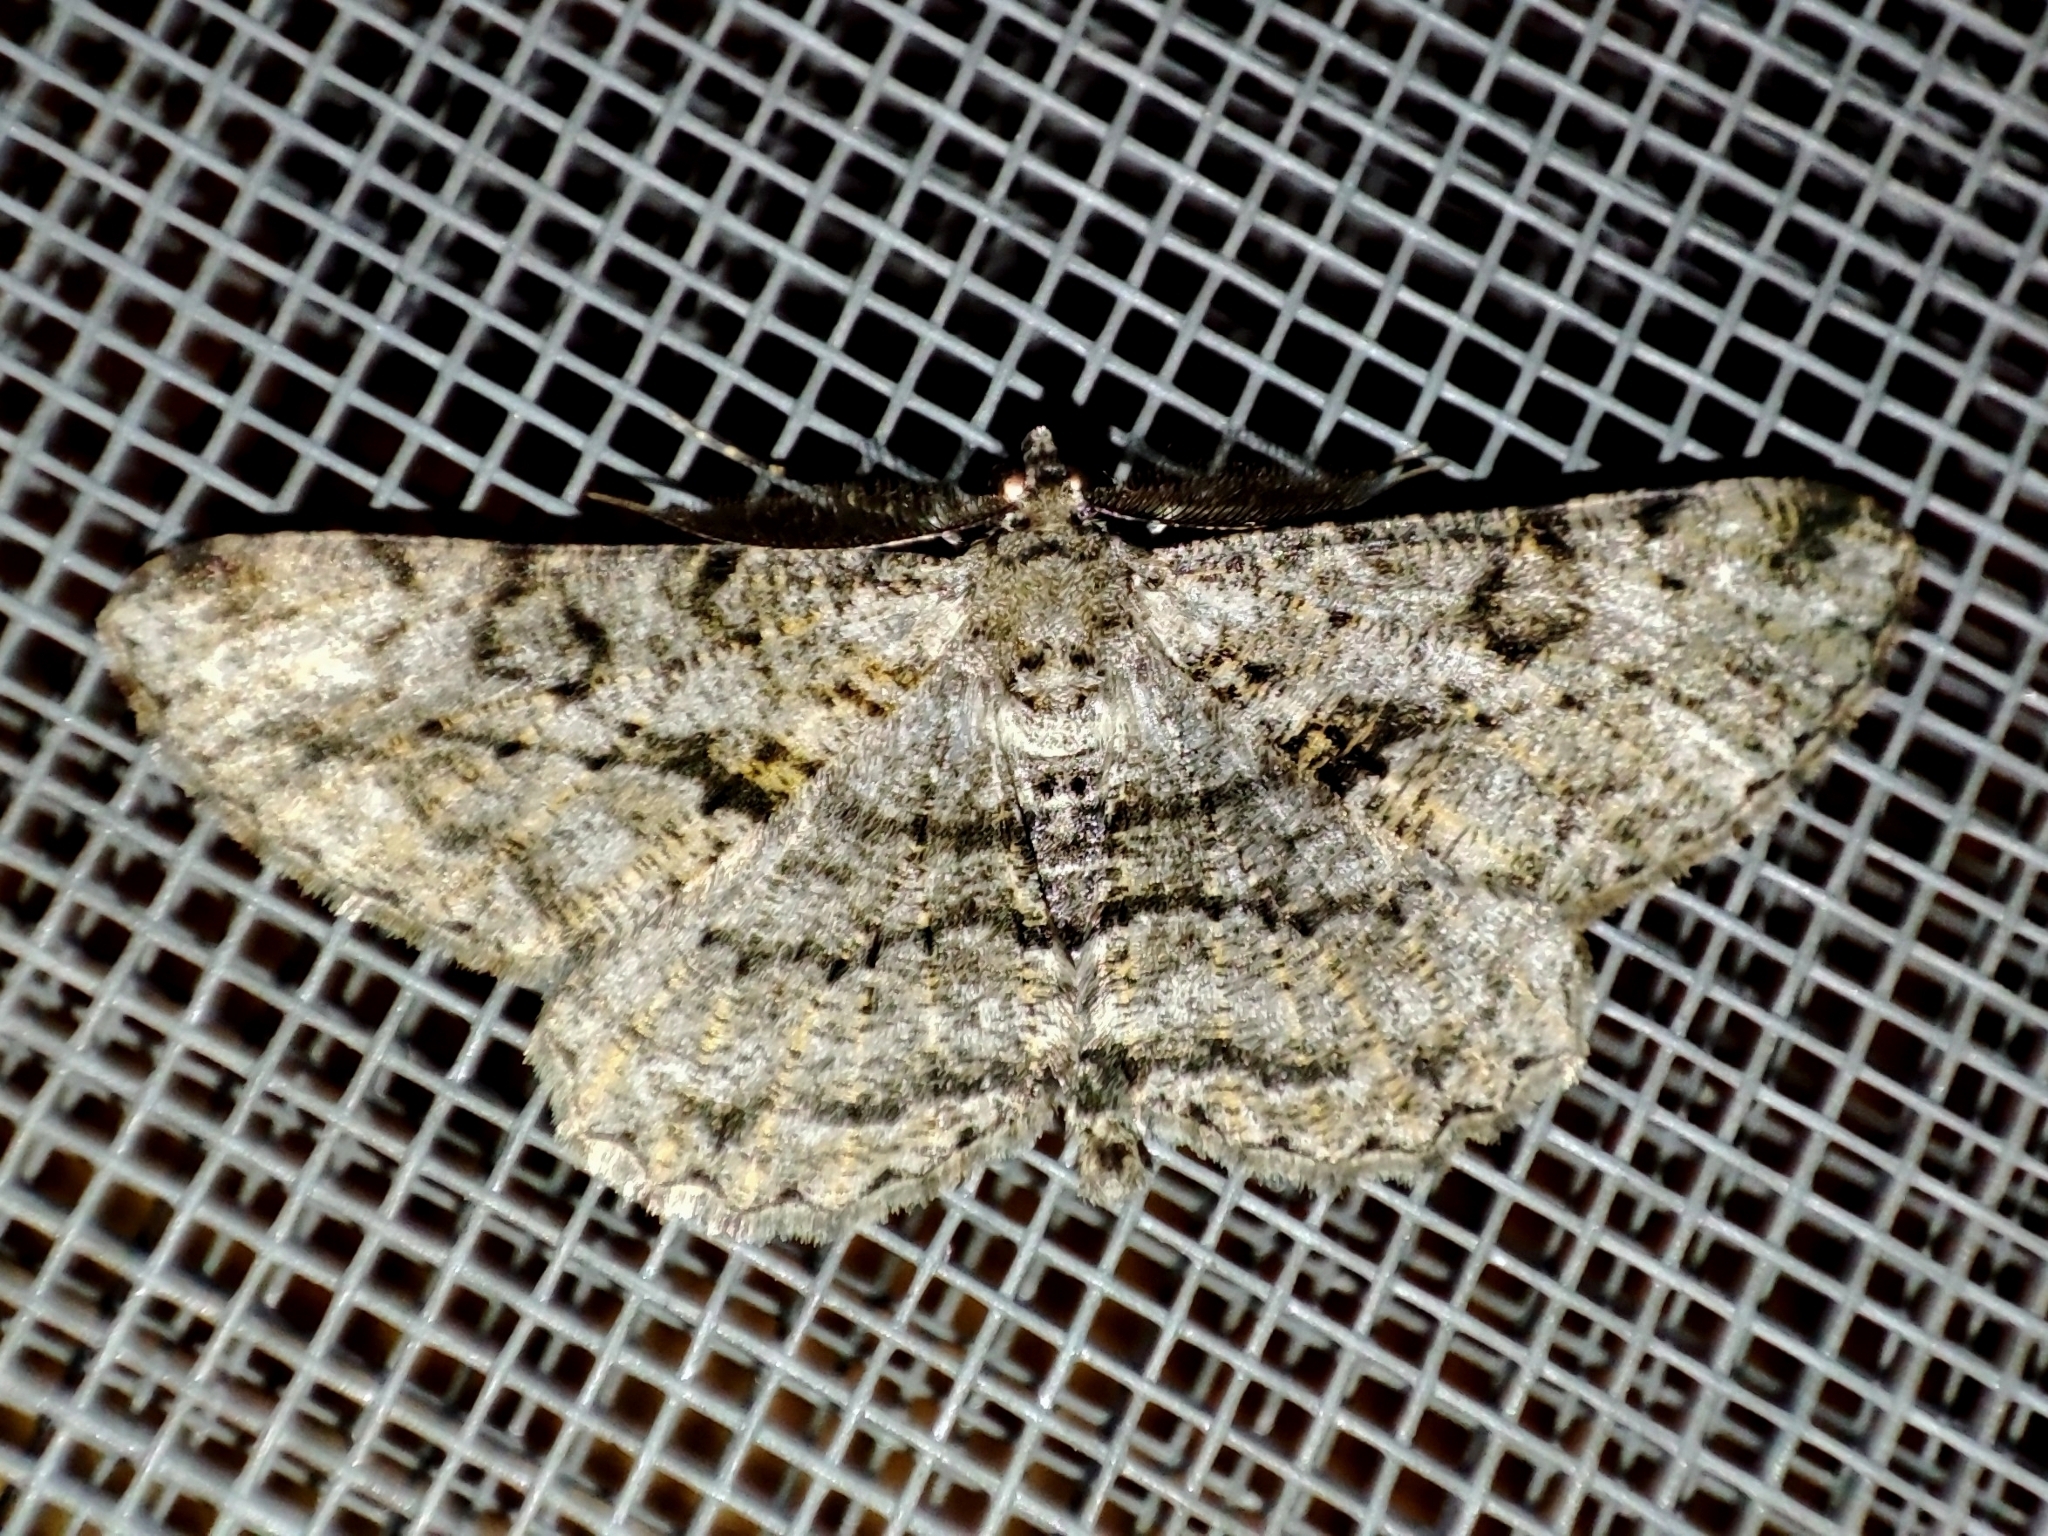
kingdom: Animalia
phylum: Arthropoda
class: Insecta
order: Lepidoptera
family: Geometridae
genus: Peribatodes
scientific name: Peribatodes rhomboidaria
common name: Willow beauty
